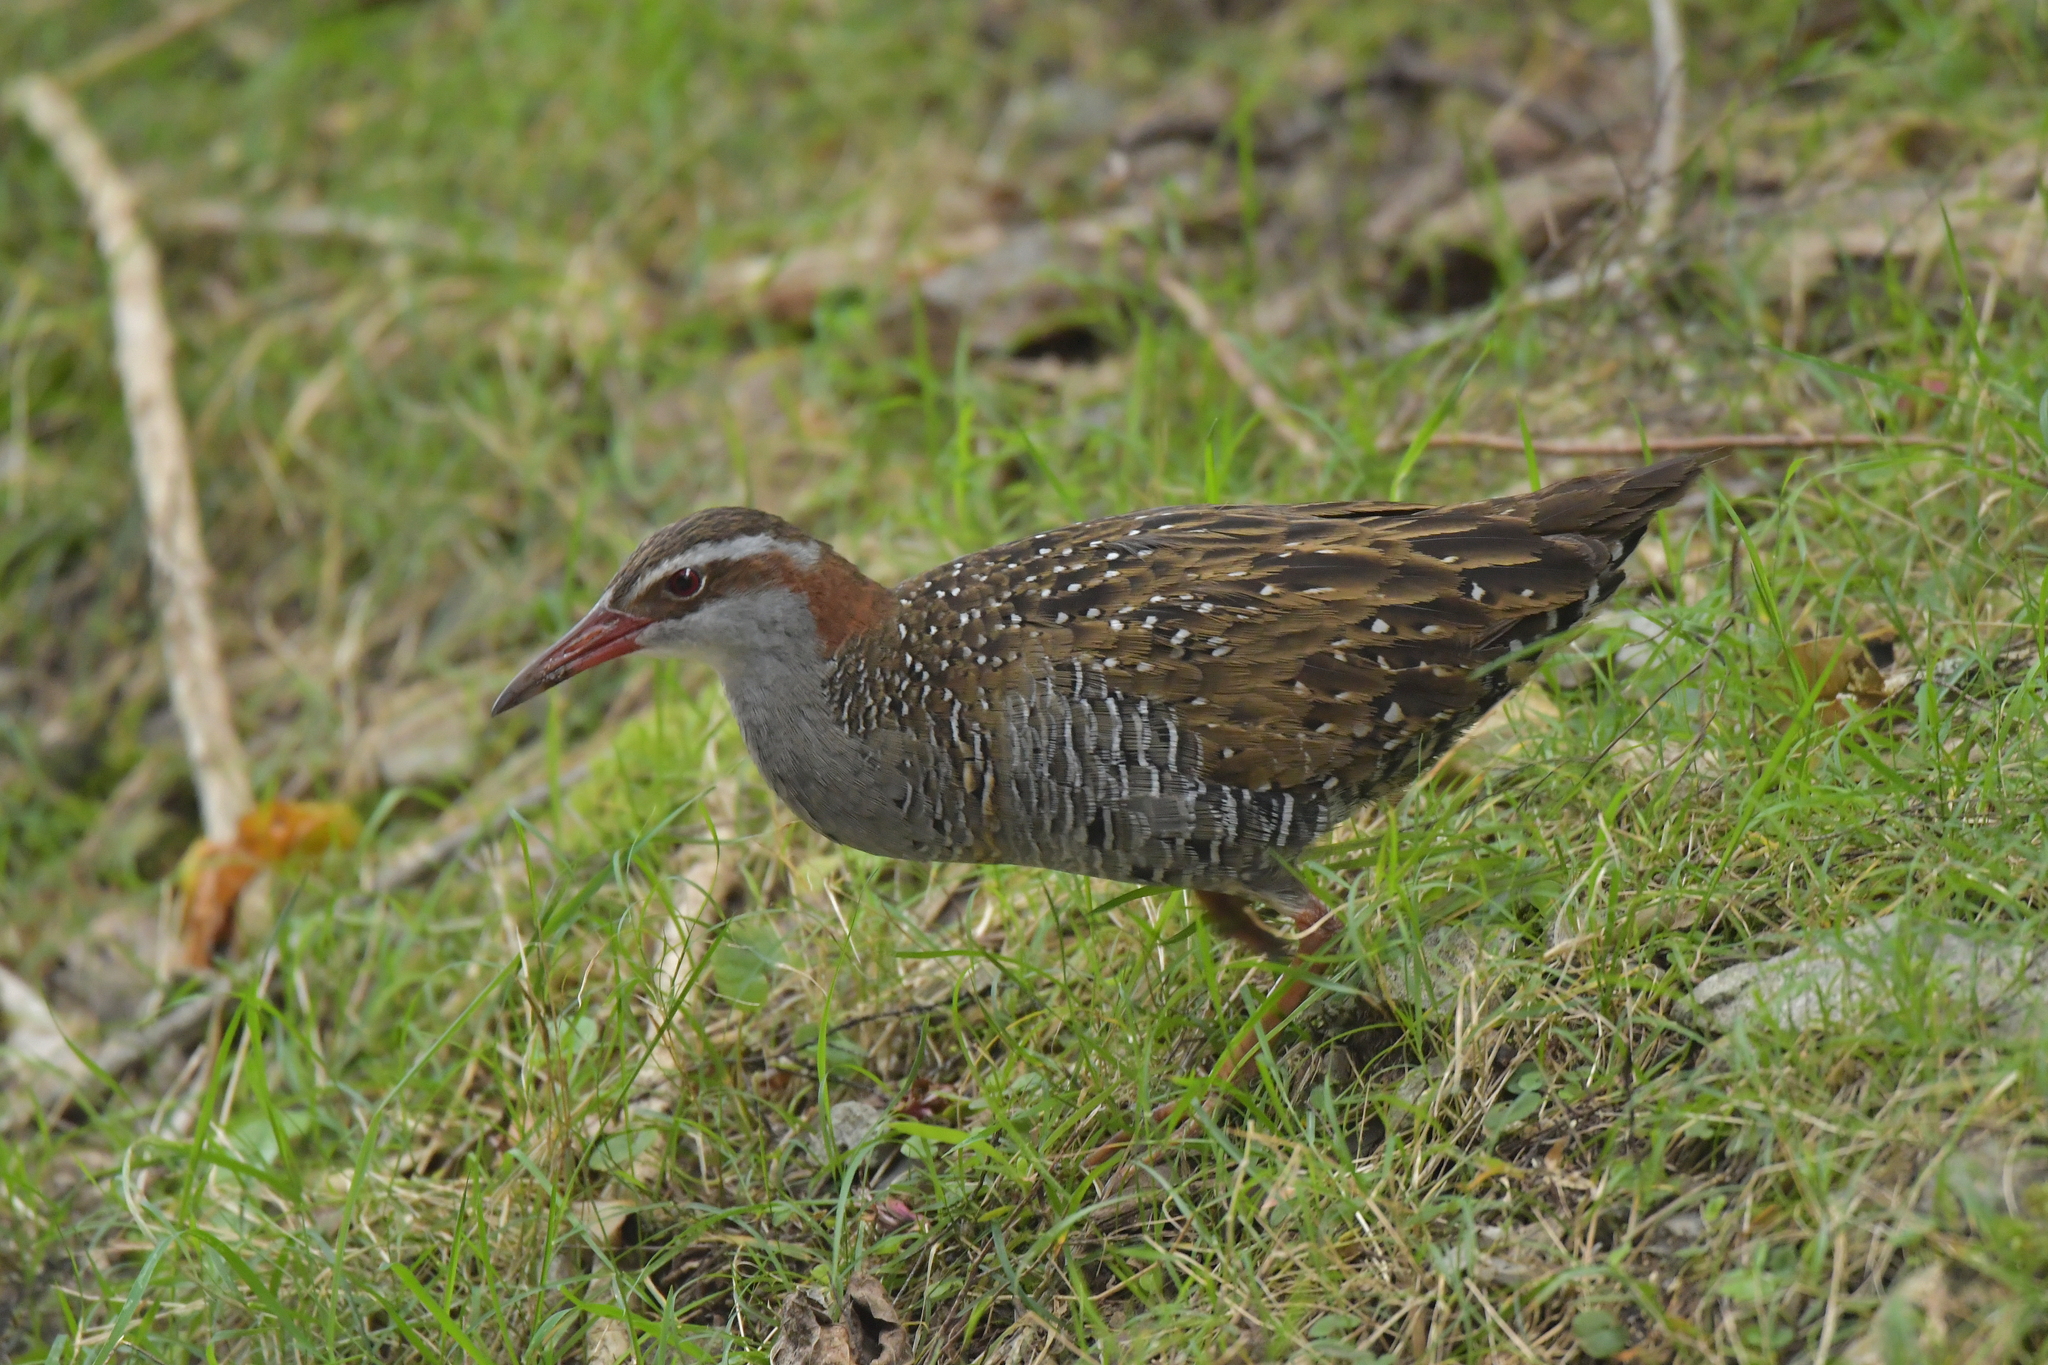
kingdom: Animalia
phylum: Chordata
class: Aves
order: Gruiformes
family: Rallidae
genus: Gallirallus
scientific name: Gallirallus philippensis
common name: Buff-banded rail
